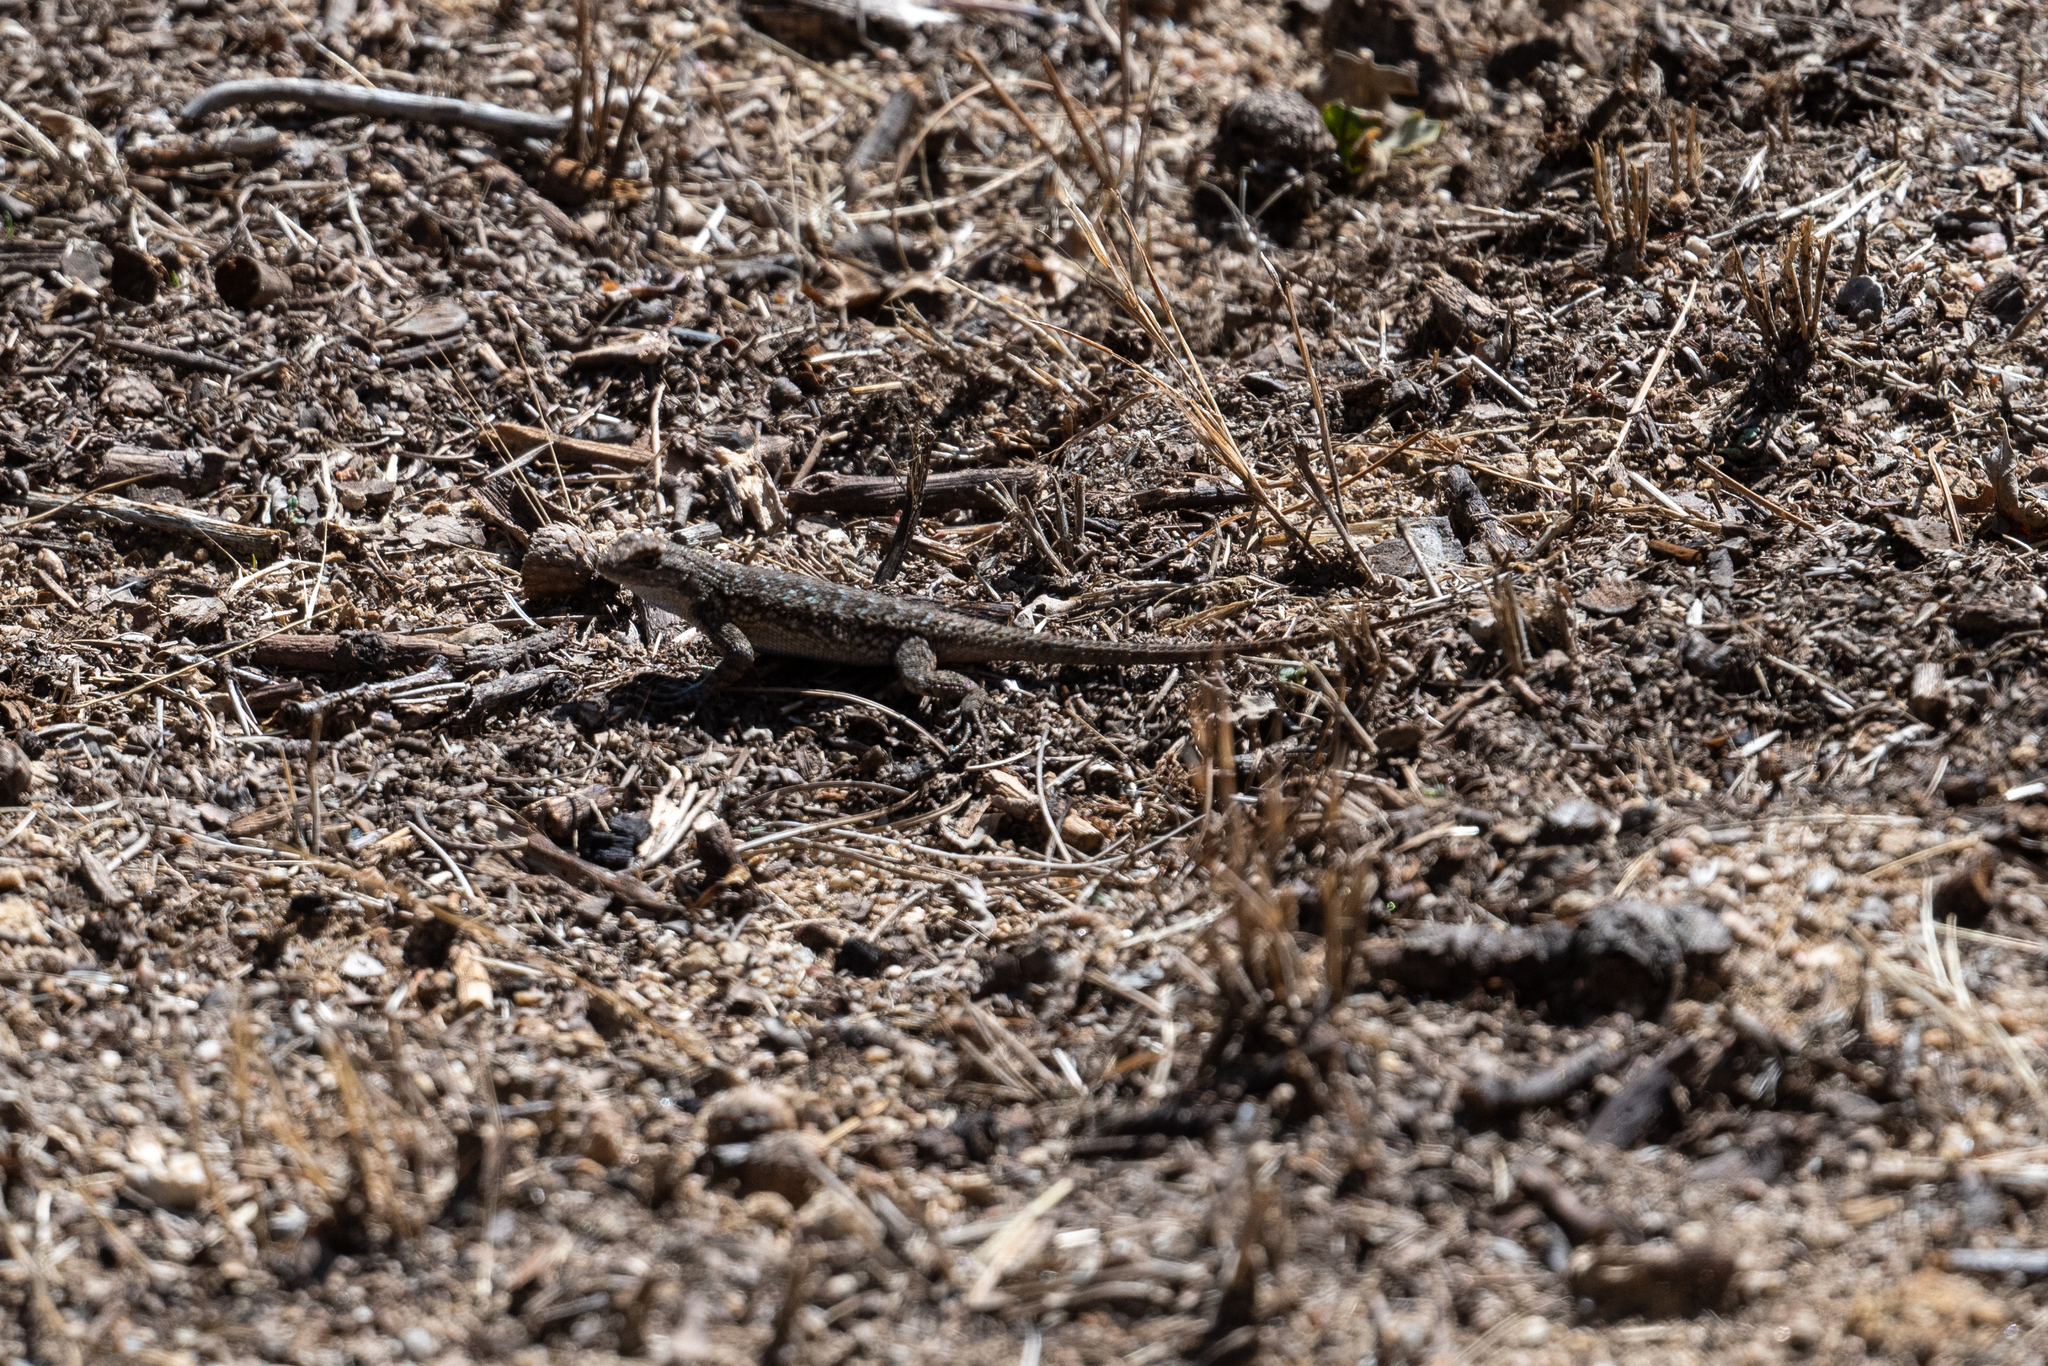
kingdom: Animalia
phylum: Chordata
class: Squamata
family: Phrynosomatidae
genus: Sceloporus
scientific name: Sceloporus occidentalis
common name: Western fence lizard
